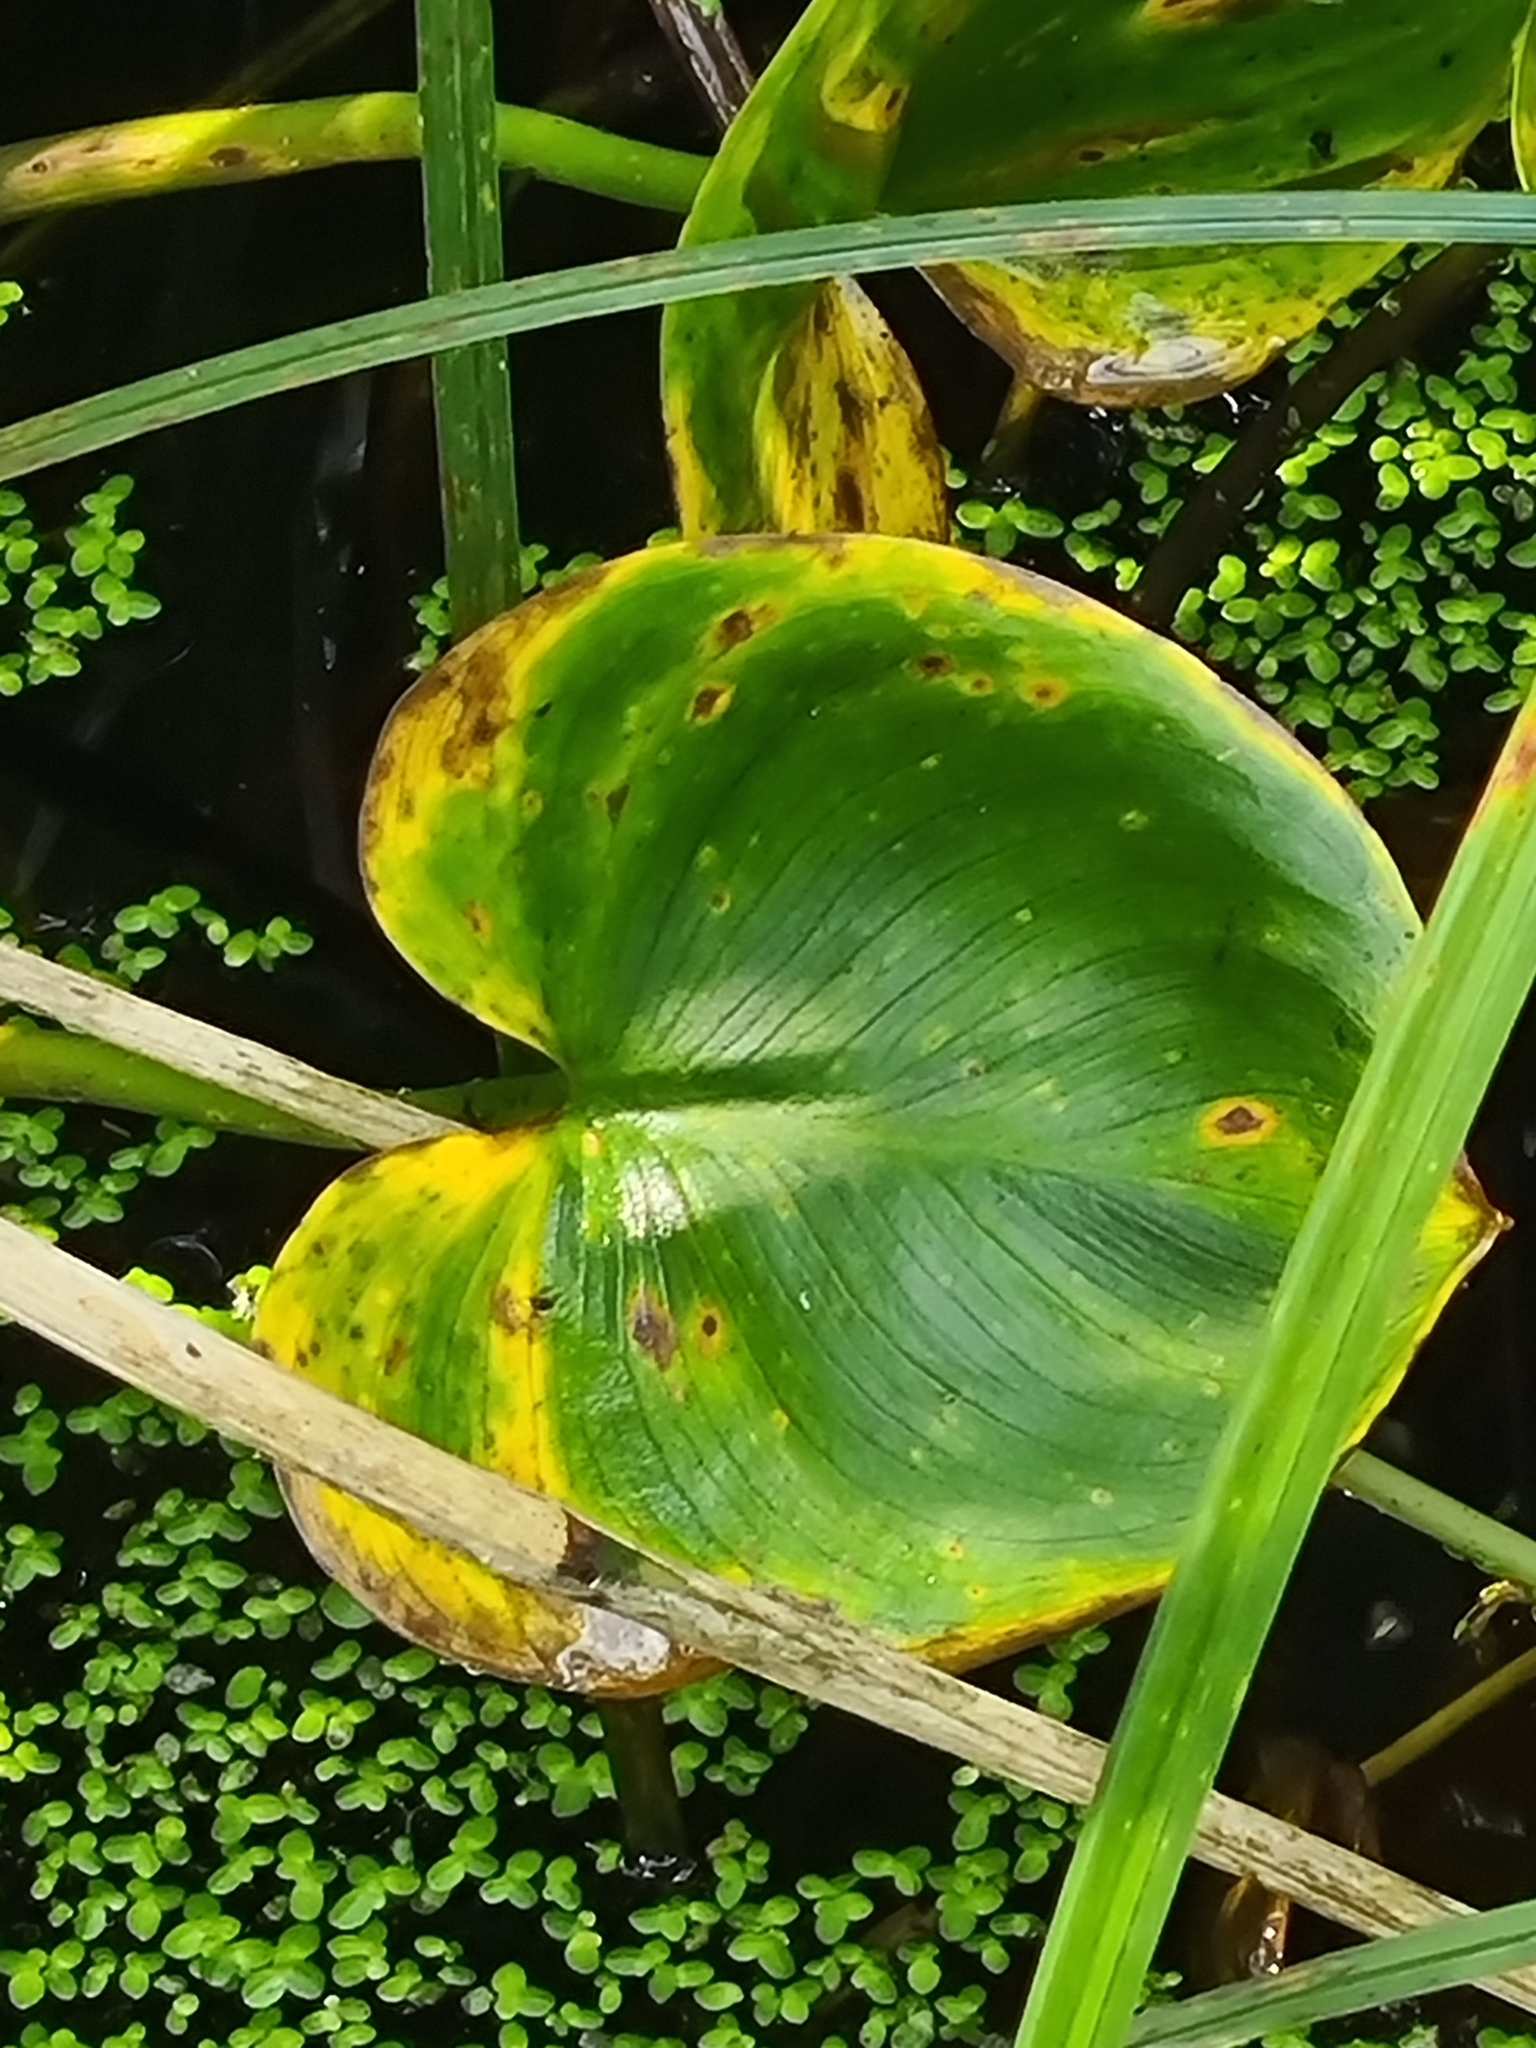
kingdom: Plantae
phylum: Tracheophyta
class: Liliopsida
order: Alismatales
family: Araceae
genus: Calla
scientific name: Calla palustris
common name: Bog arum
